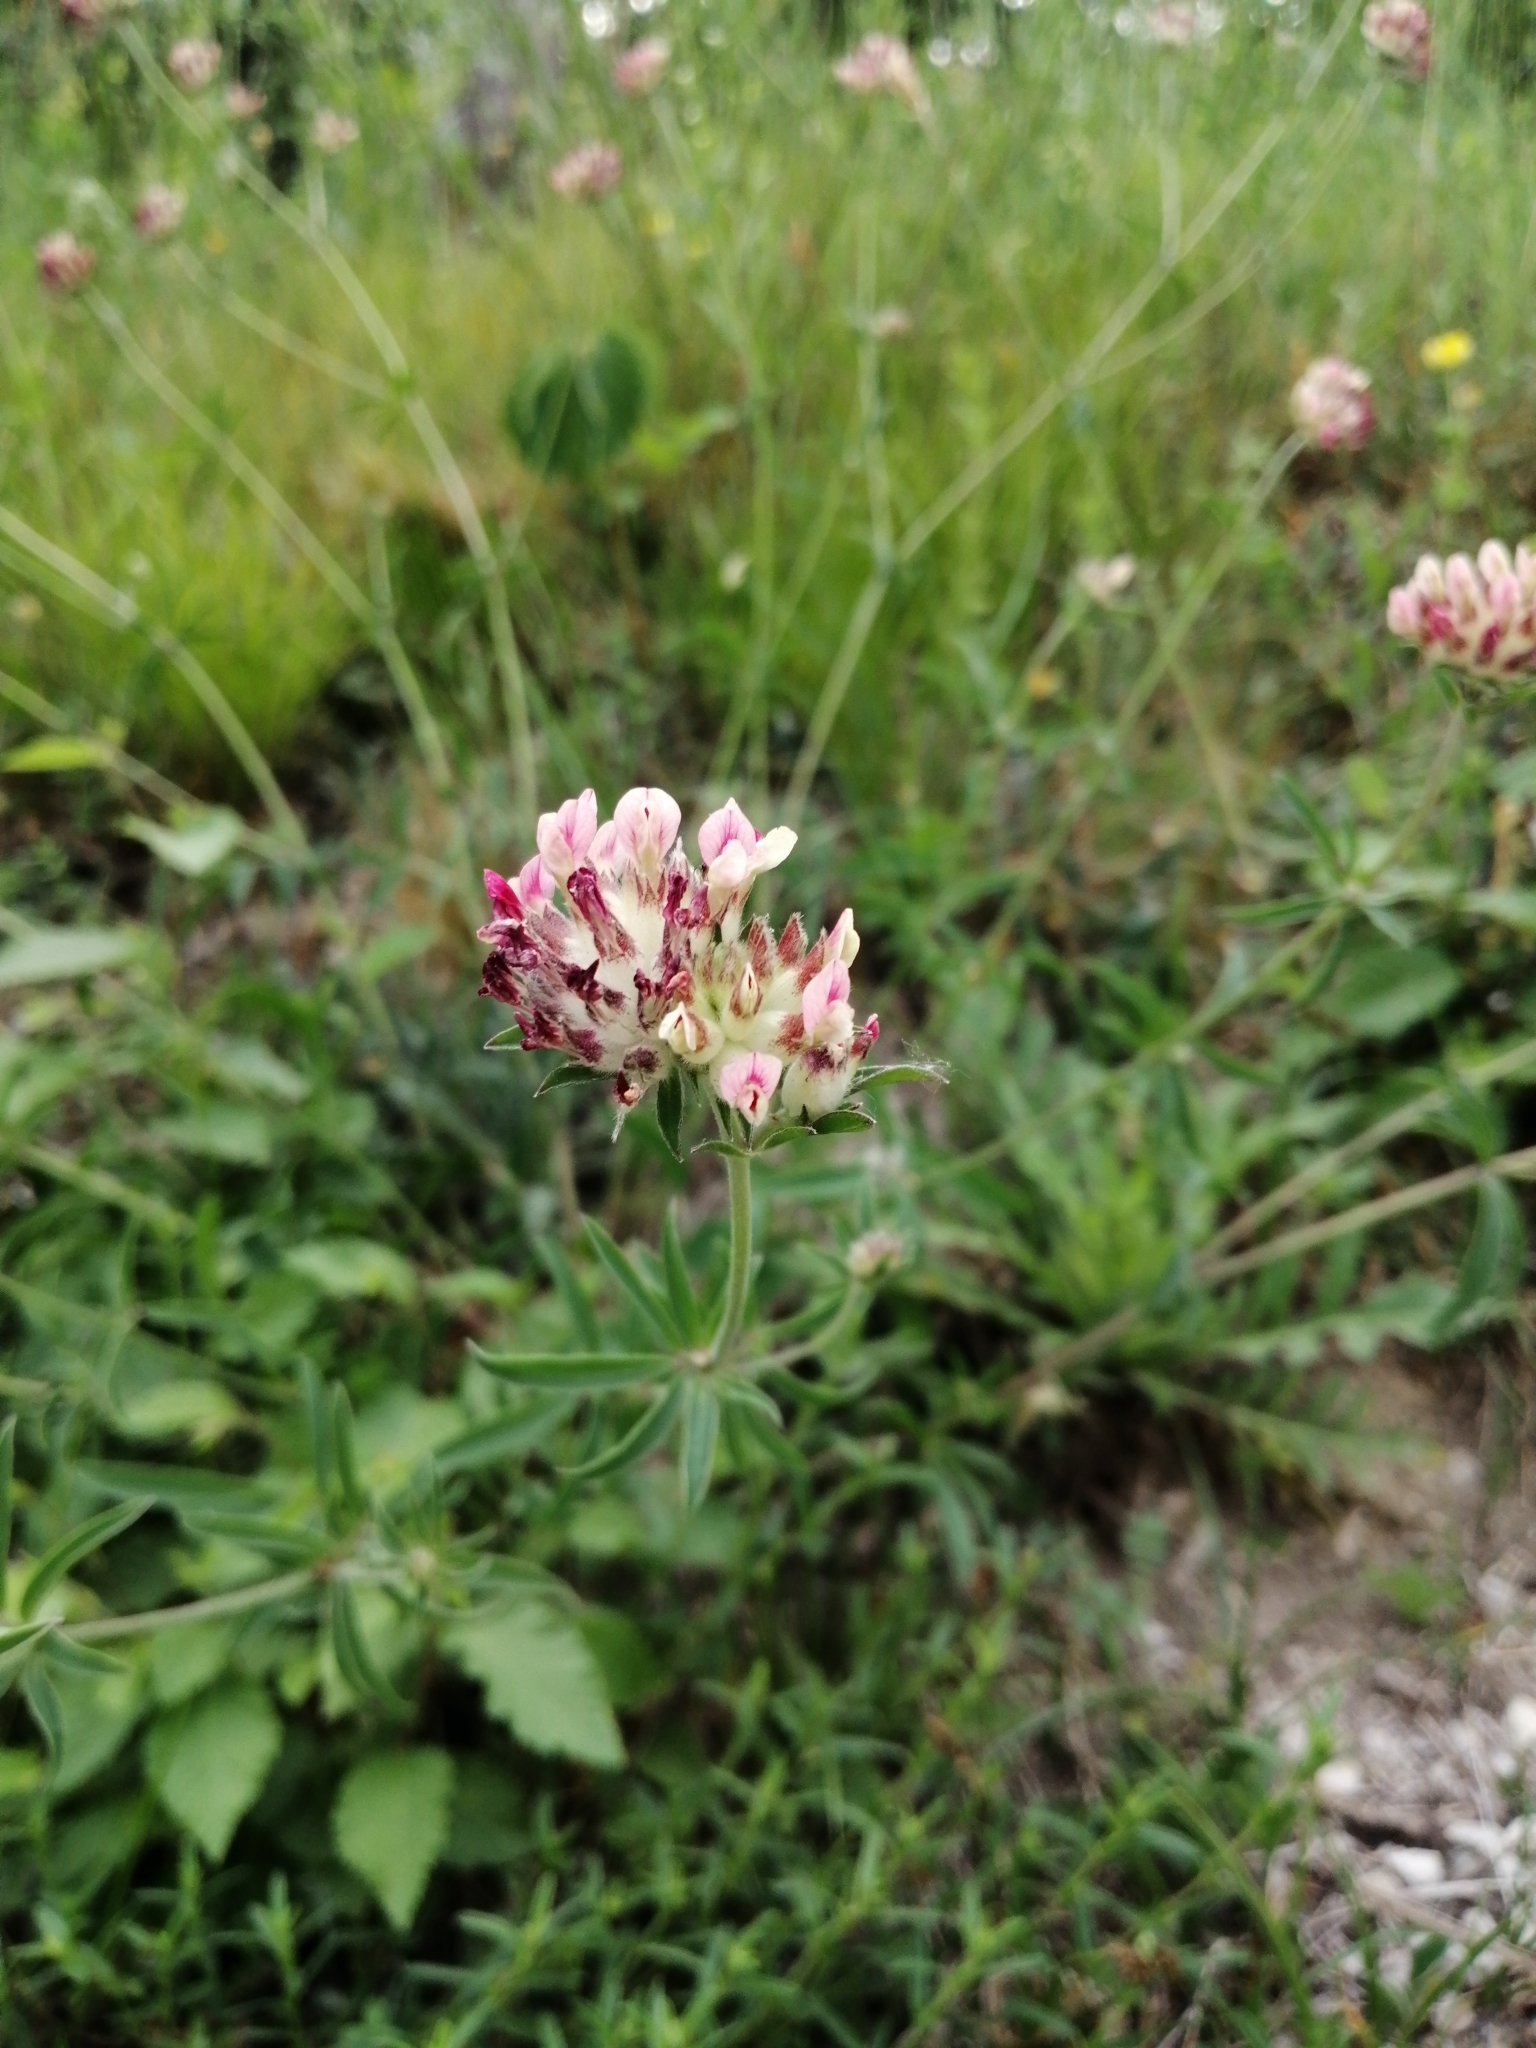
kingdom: Plantae
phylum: Tracheophyta
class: Magnoliopsida
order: Fabales
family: Fabaceae
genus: Anthyllis
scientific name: Anthyllis vulneraria
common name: Kidney vetch
